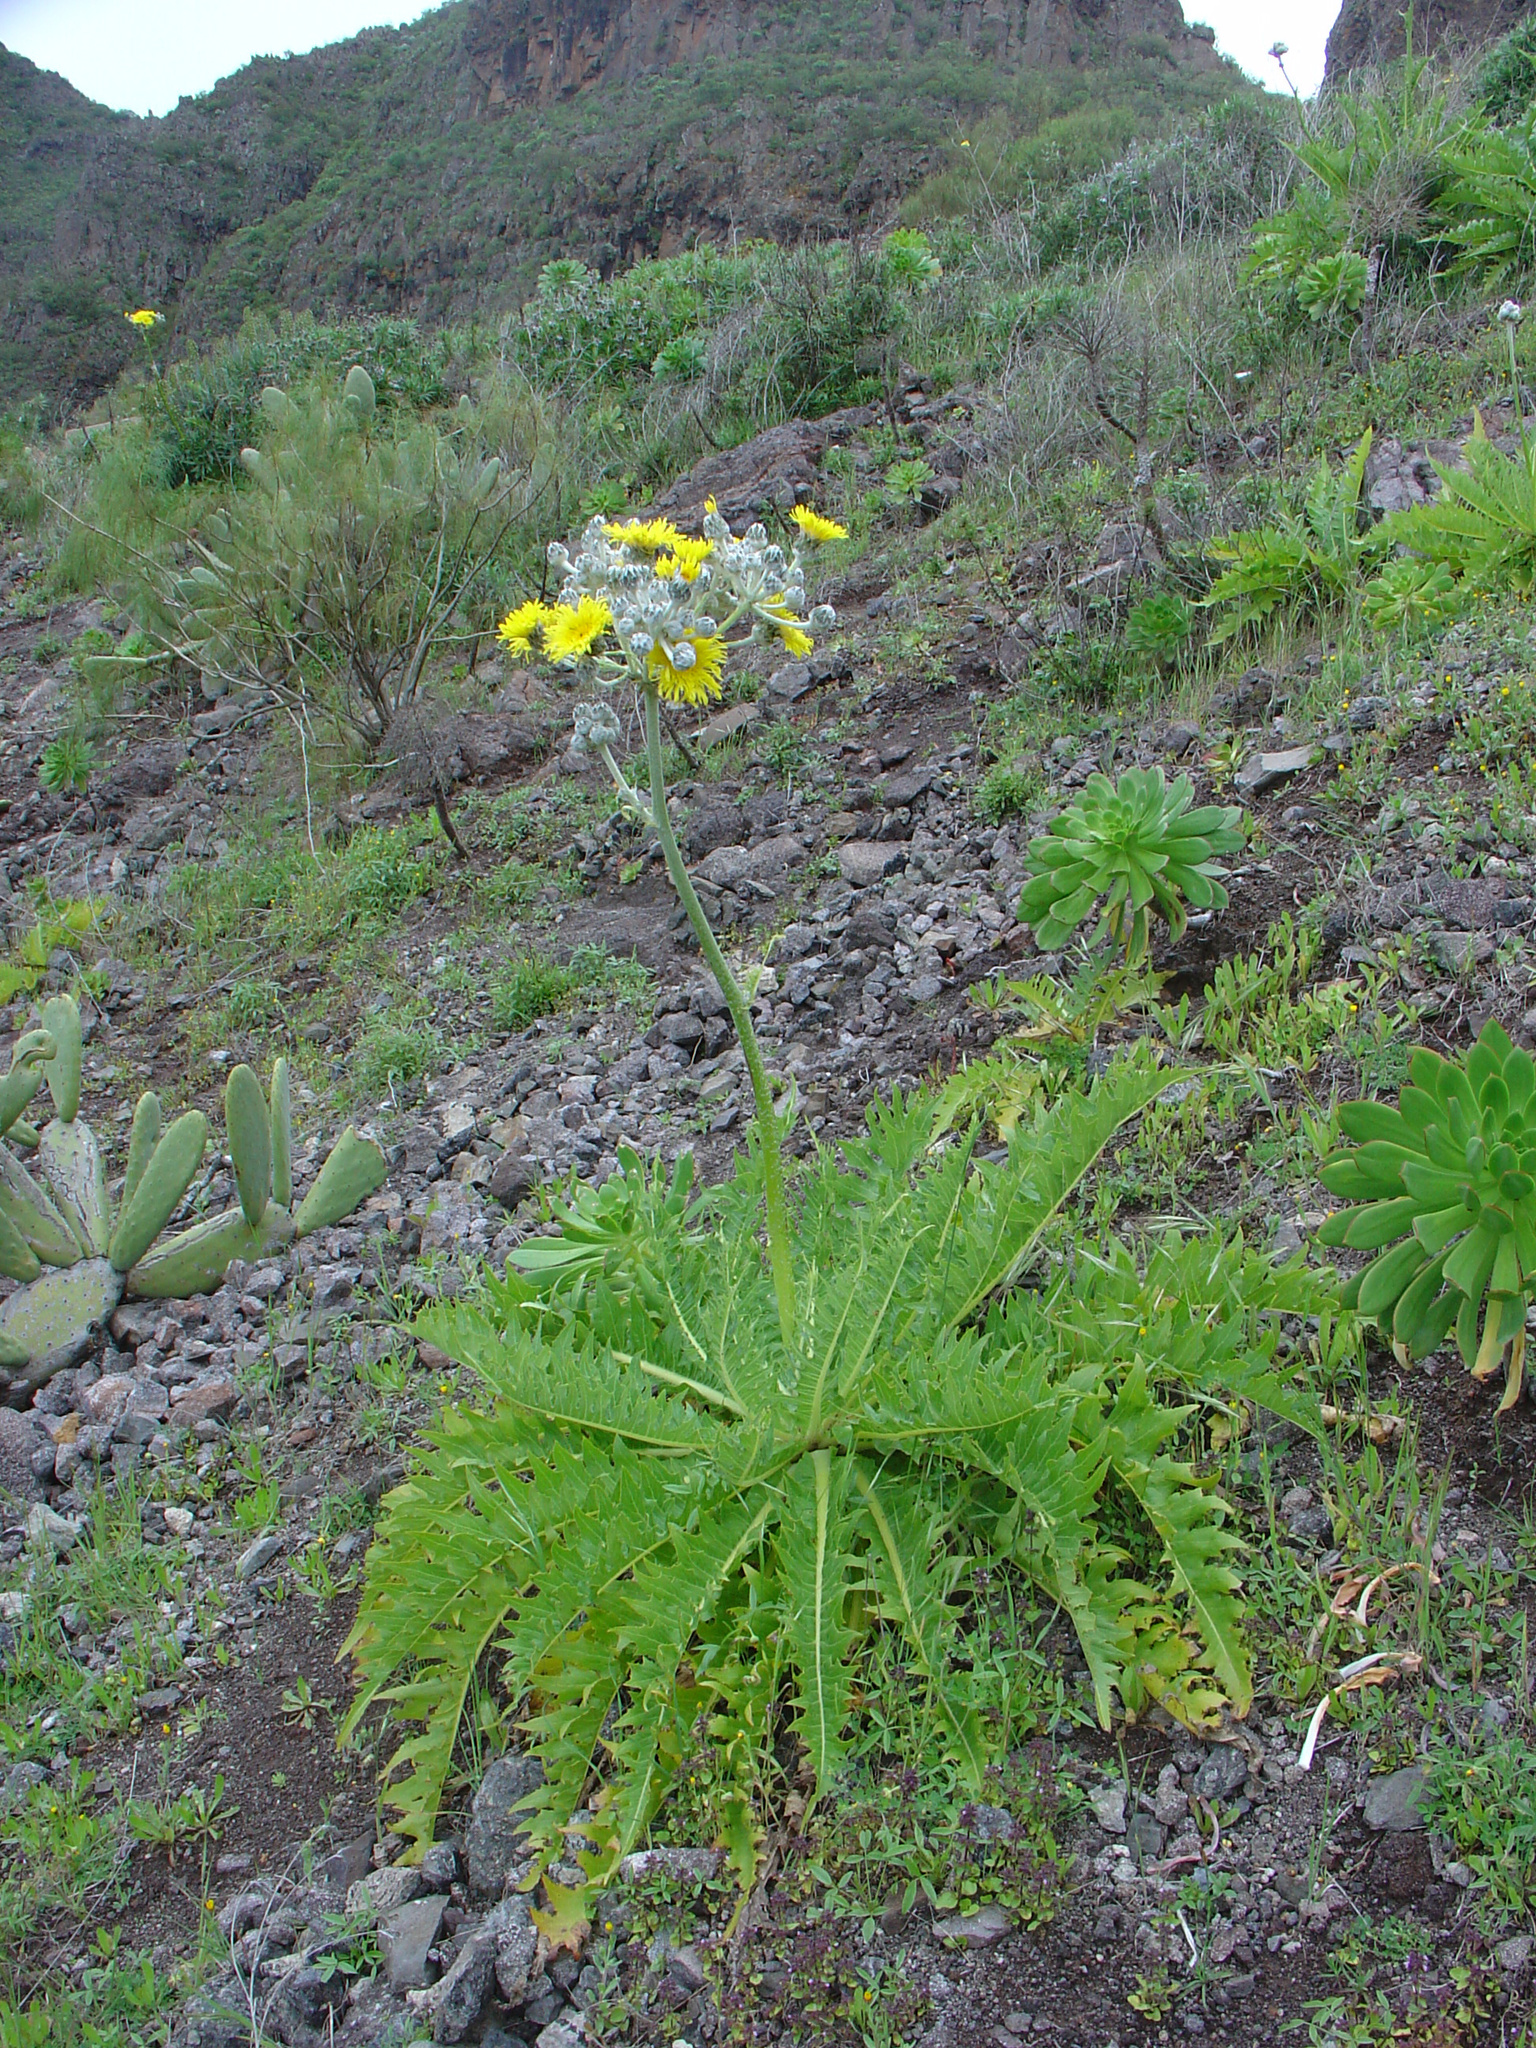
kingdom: Plantae
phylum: Tracheophyta
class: Magnoliopsida
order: Asterales
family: Asteraceae
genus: Sonchus
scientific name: Sonchus acaulis
